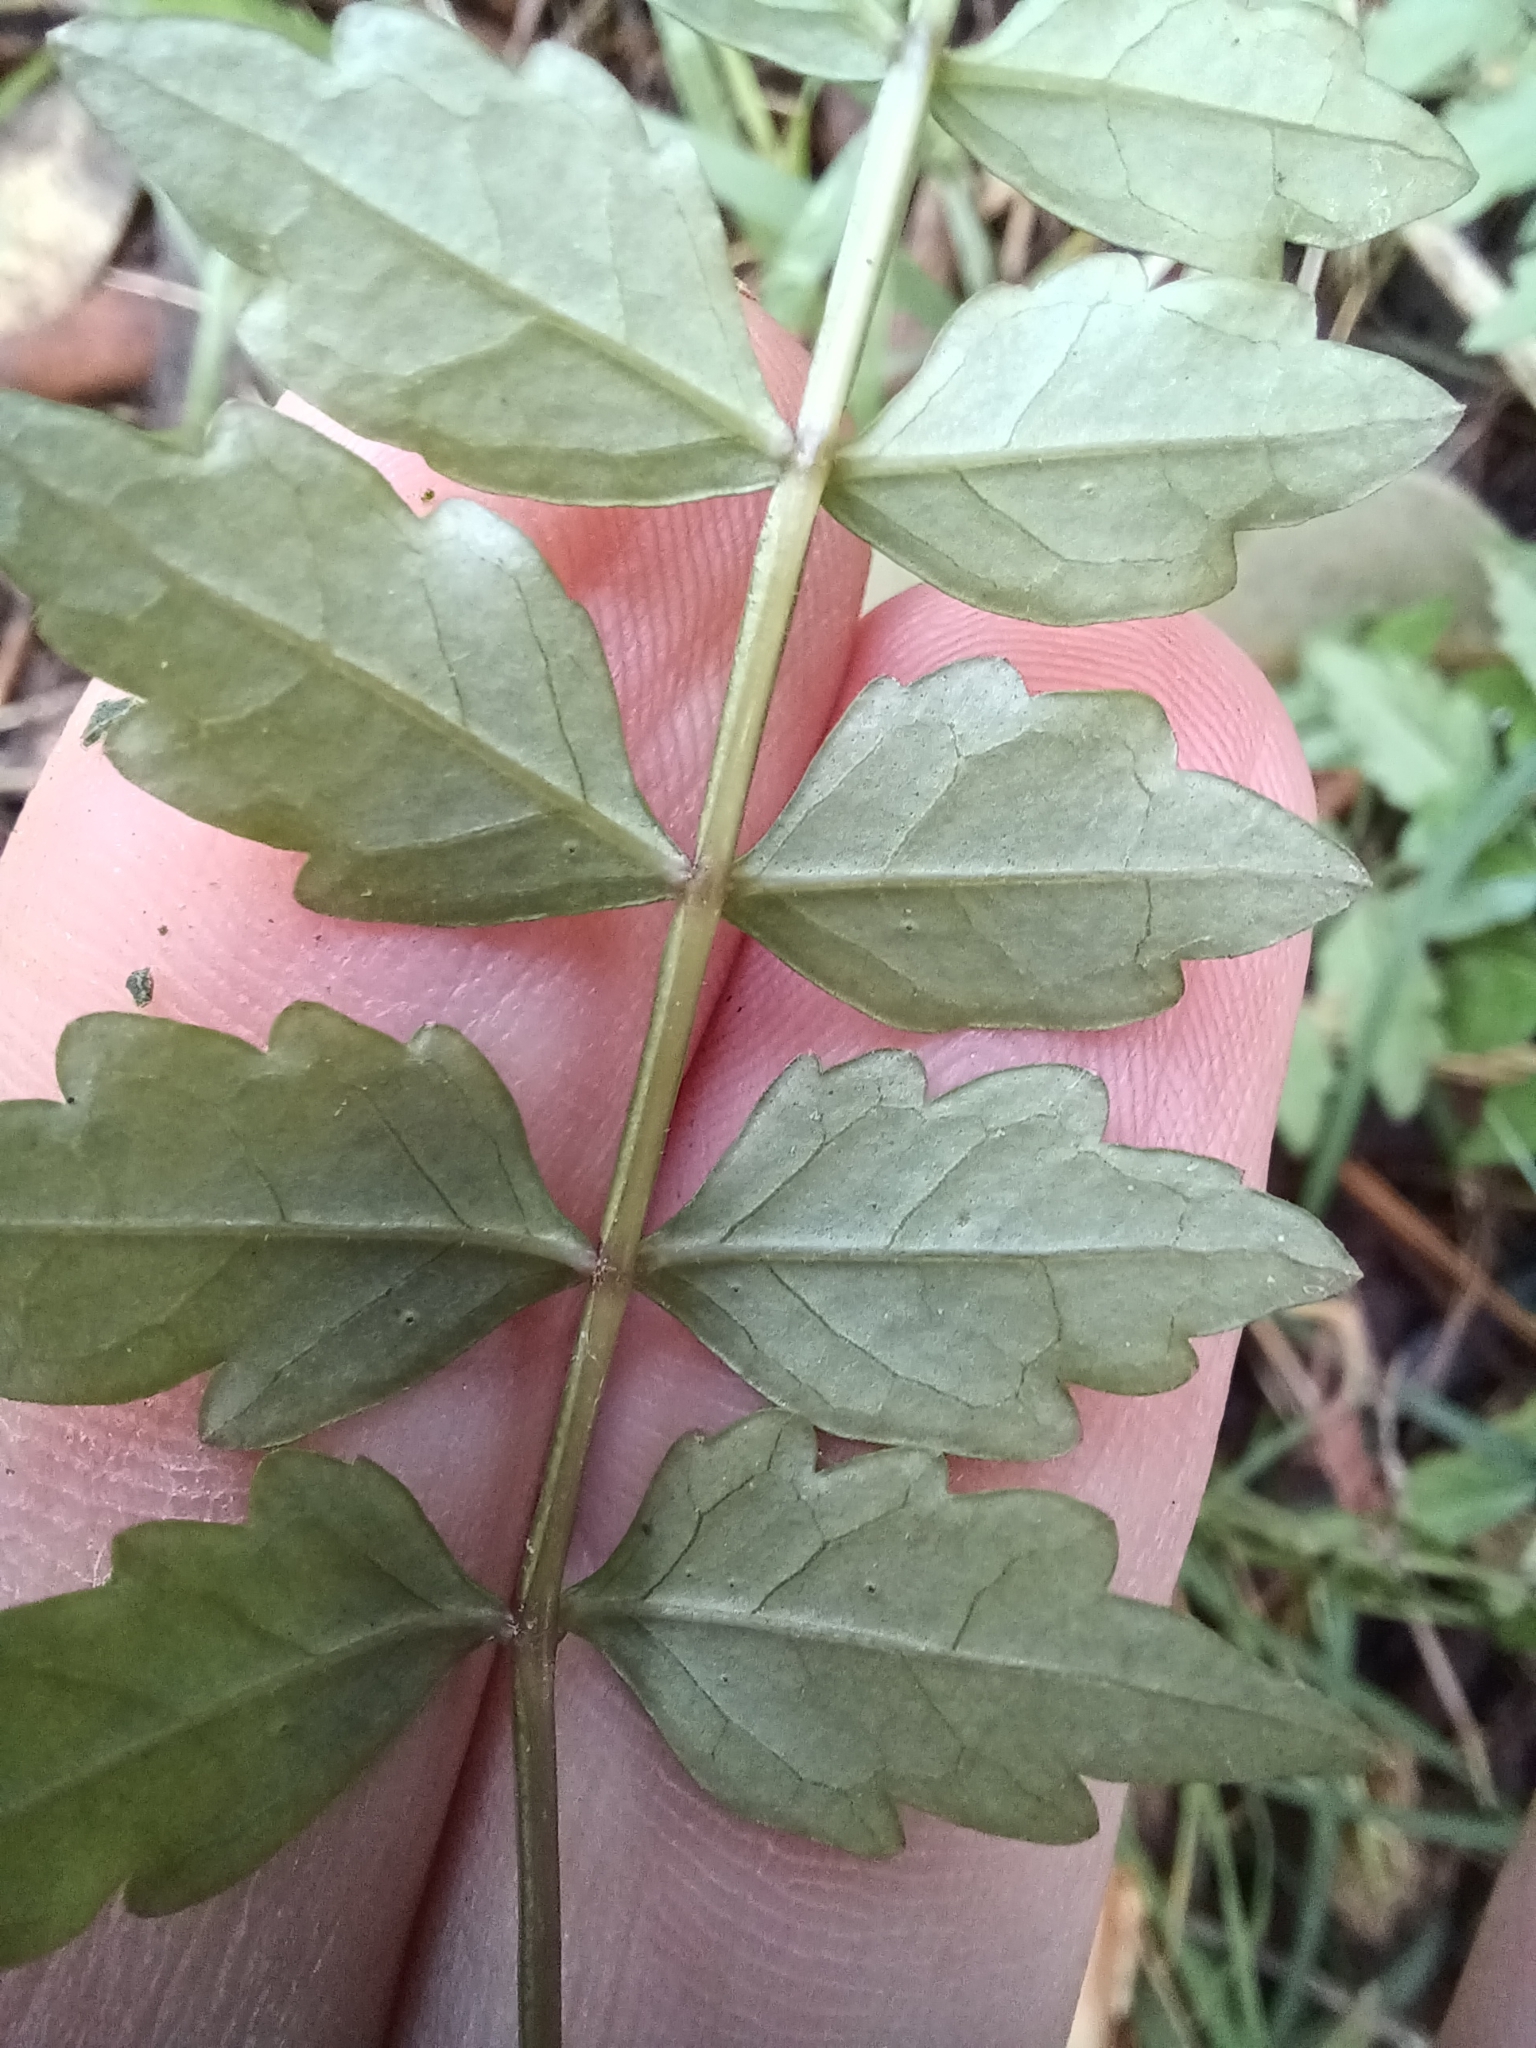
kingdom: Plantae
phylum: Tracheophyta
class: Magnoliopsida
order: Lamiales
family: Bignoniaceae
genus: Pandorea
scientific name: Pandorea pandorana
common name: Wonga-wonga-vine
